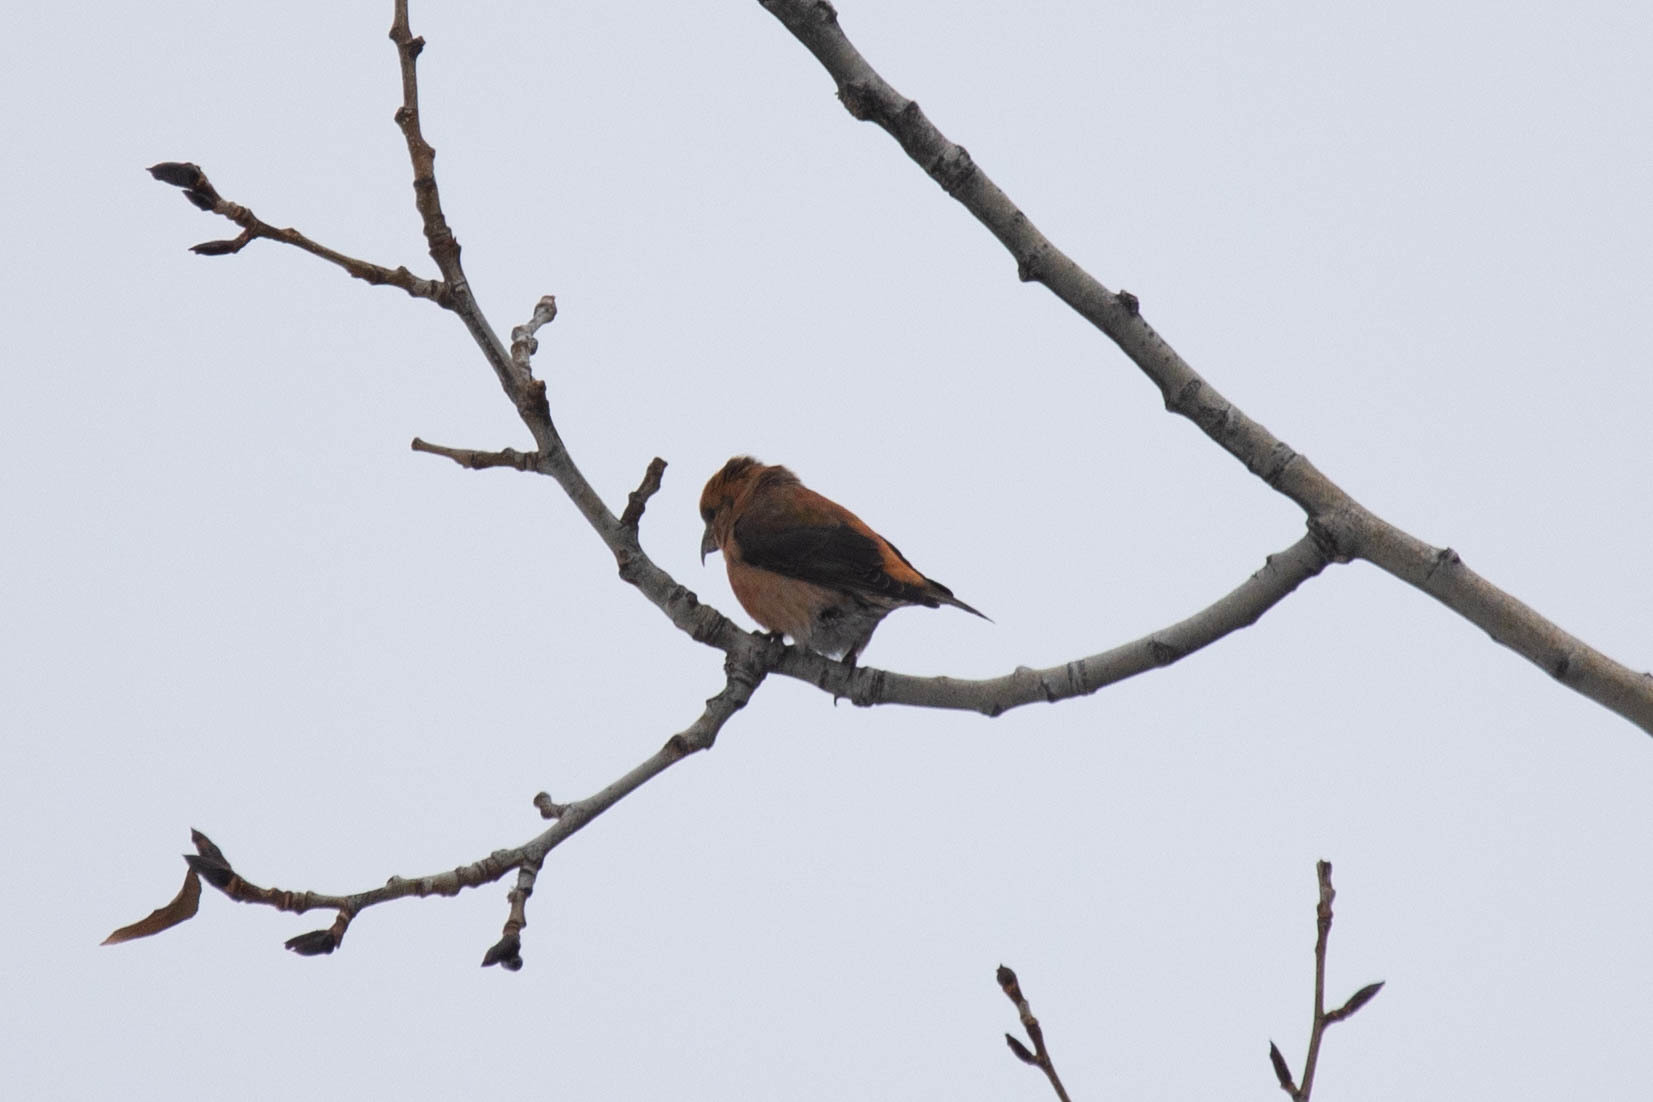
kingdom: Animalia
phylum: Chordata
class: Aves
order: Passeriformes
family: Fringillidae
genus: Loxia
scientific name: Loxia curvirostra
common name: Red crossbill
